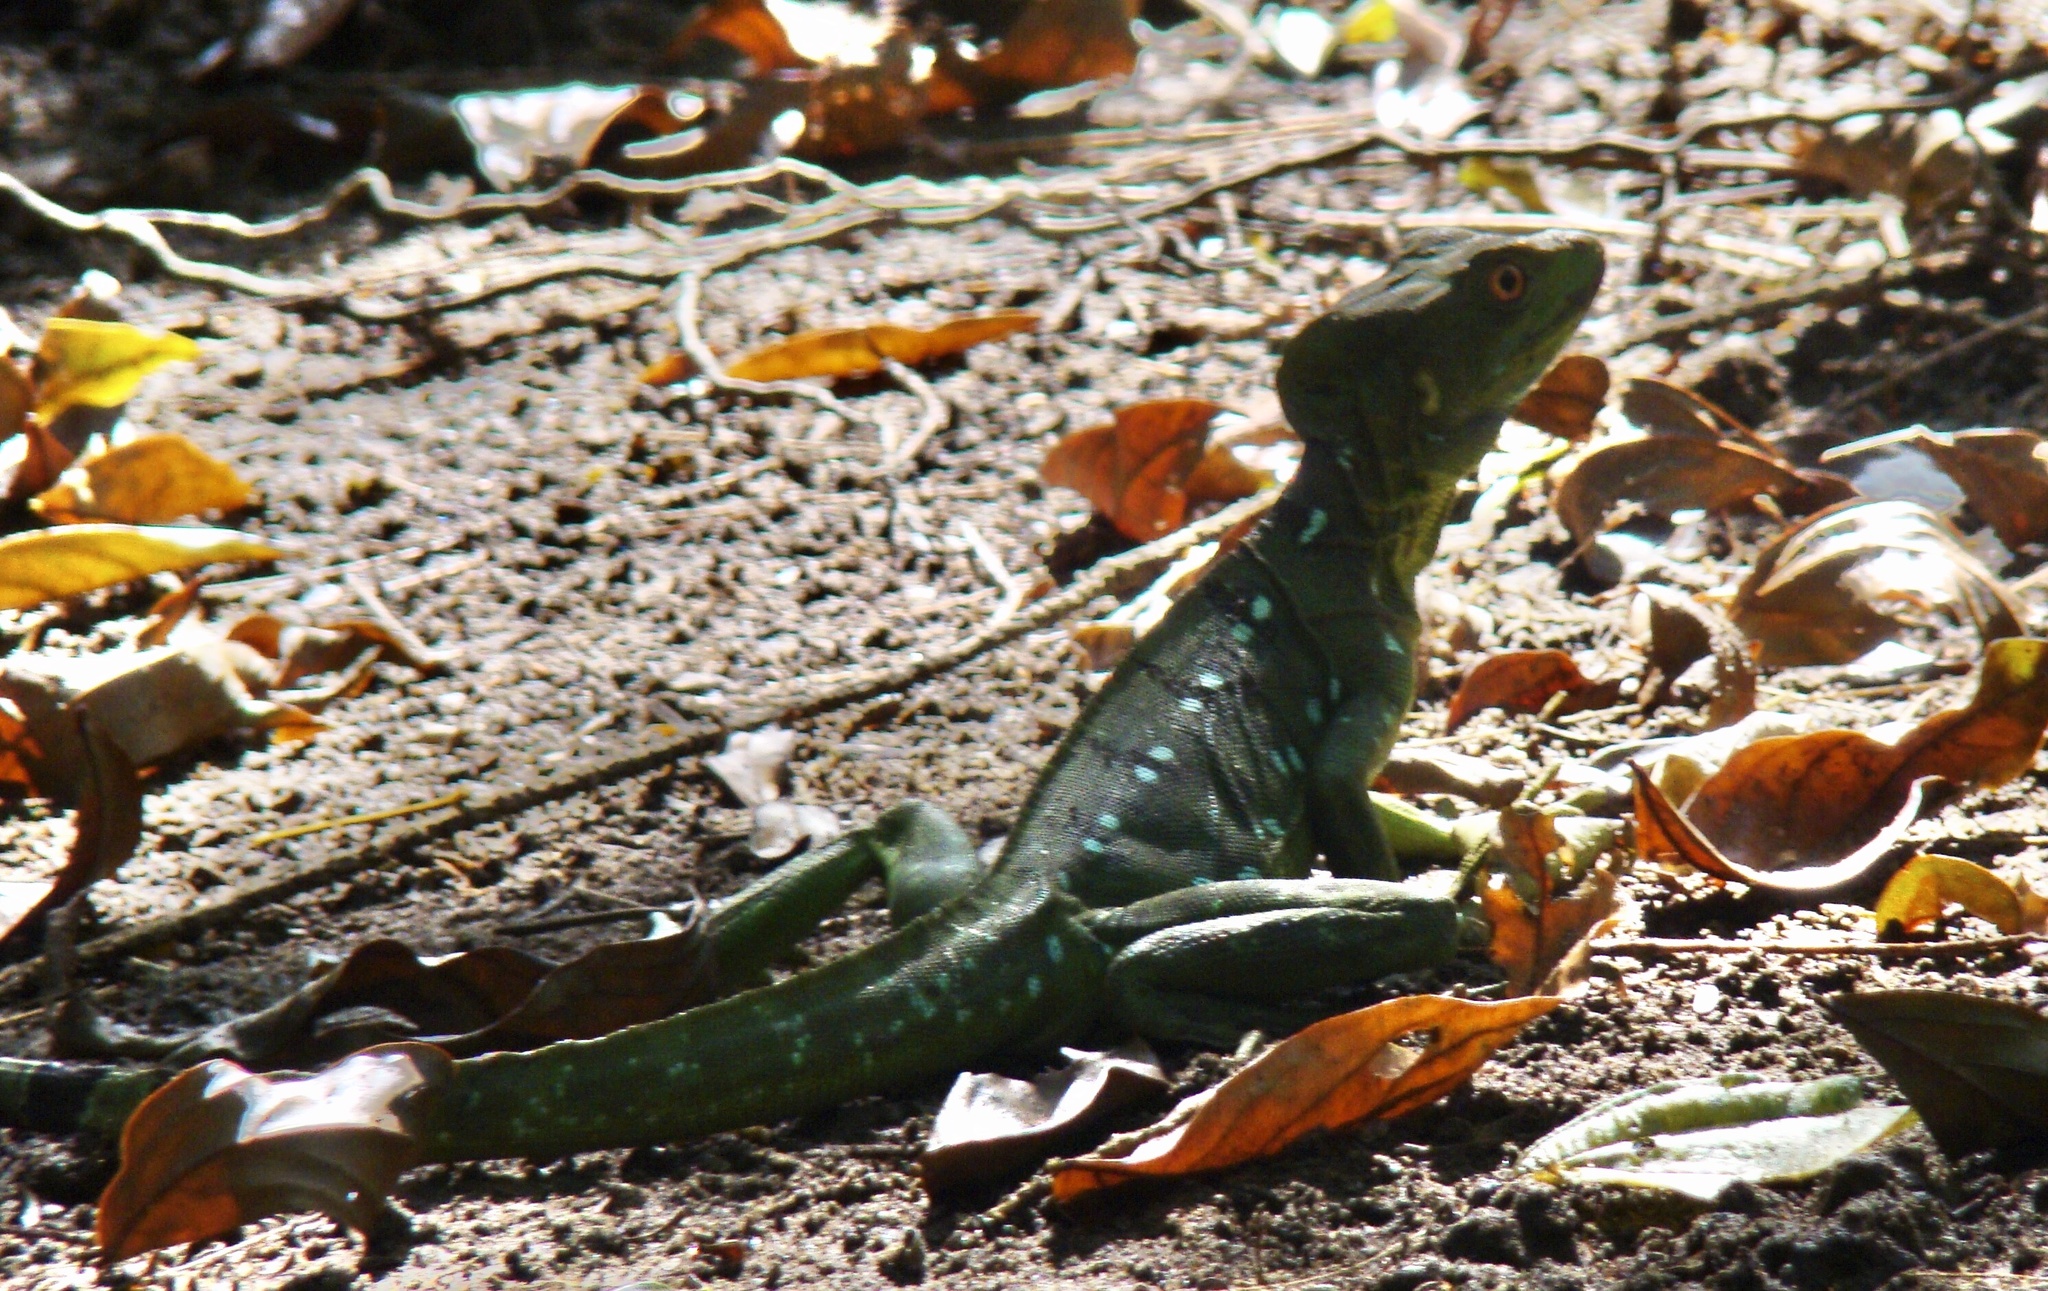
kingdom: Animalia
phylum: Chordata
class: Squamata
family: Corytophanidae
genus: Basiliscus
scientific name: Basiliscus plumifrons
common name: Green basilisk
